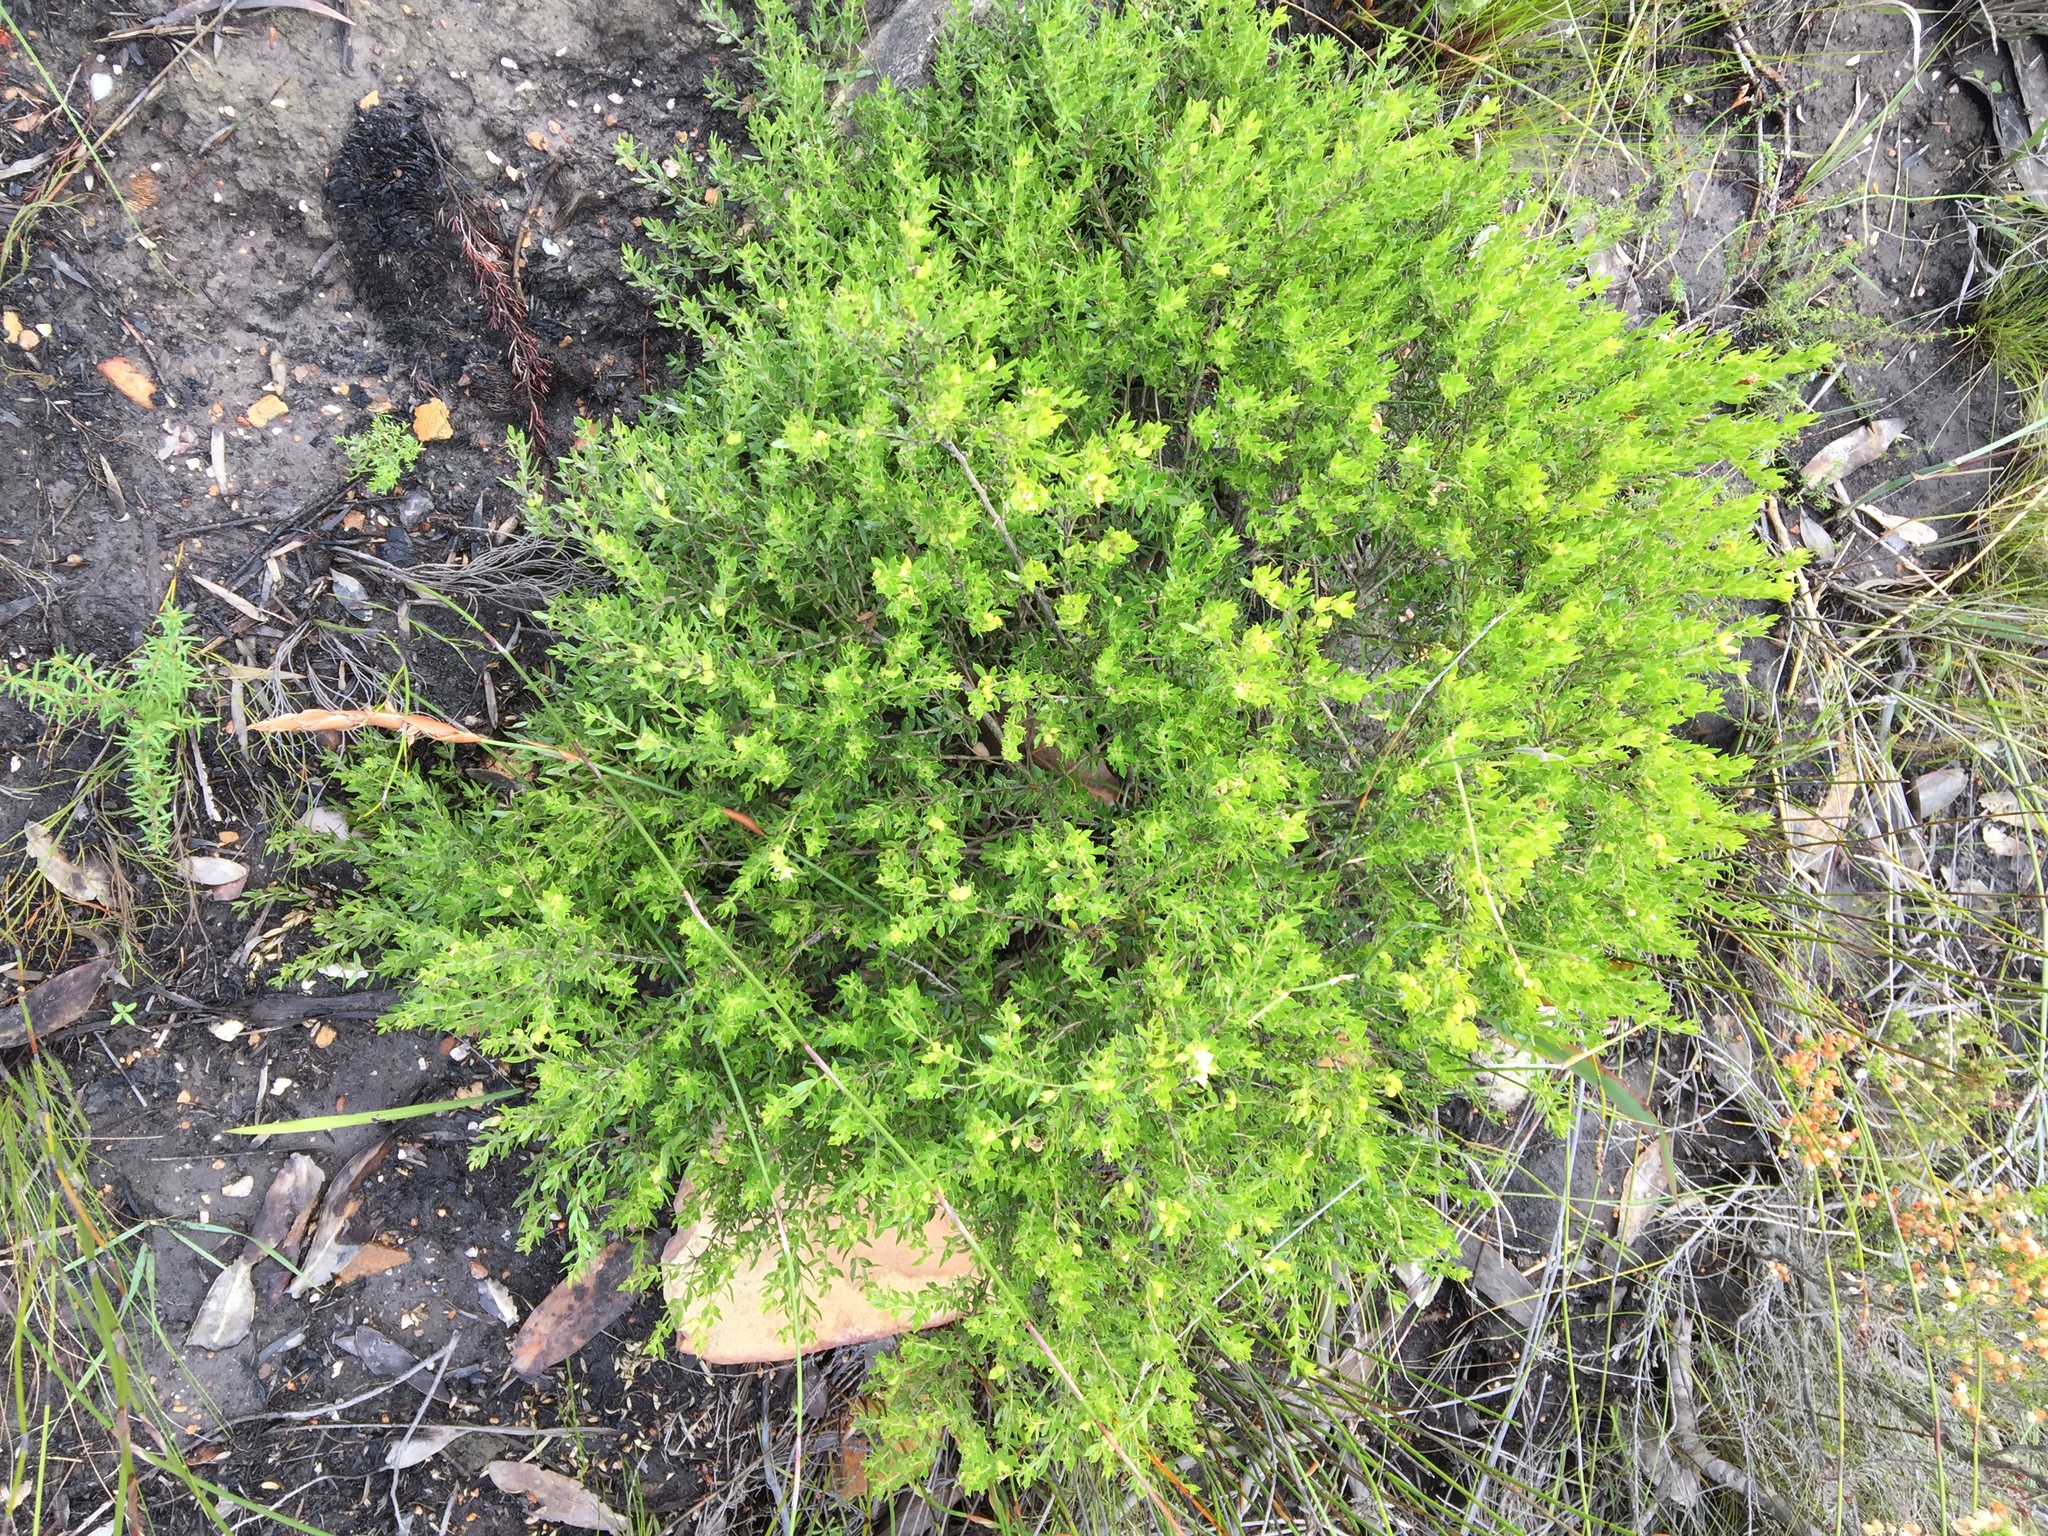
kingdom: Plantae
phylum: Tracheophyta
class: Magnoliopsida
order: Fabales
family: Fabaceae
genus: Psoralea
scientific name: Psoralea heterosepala
